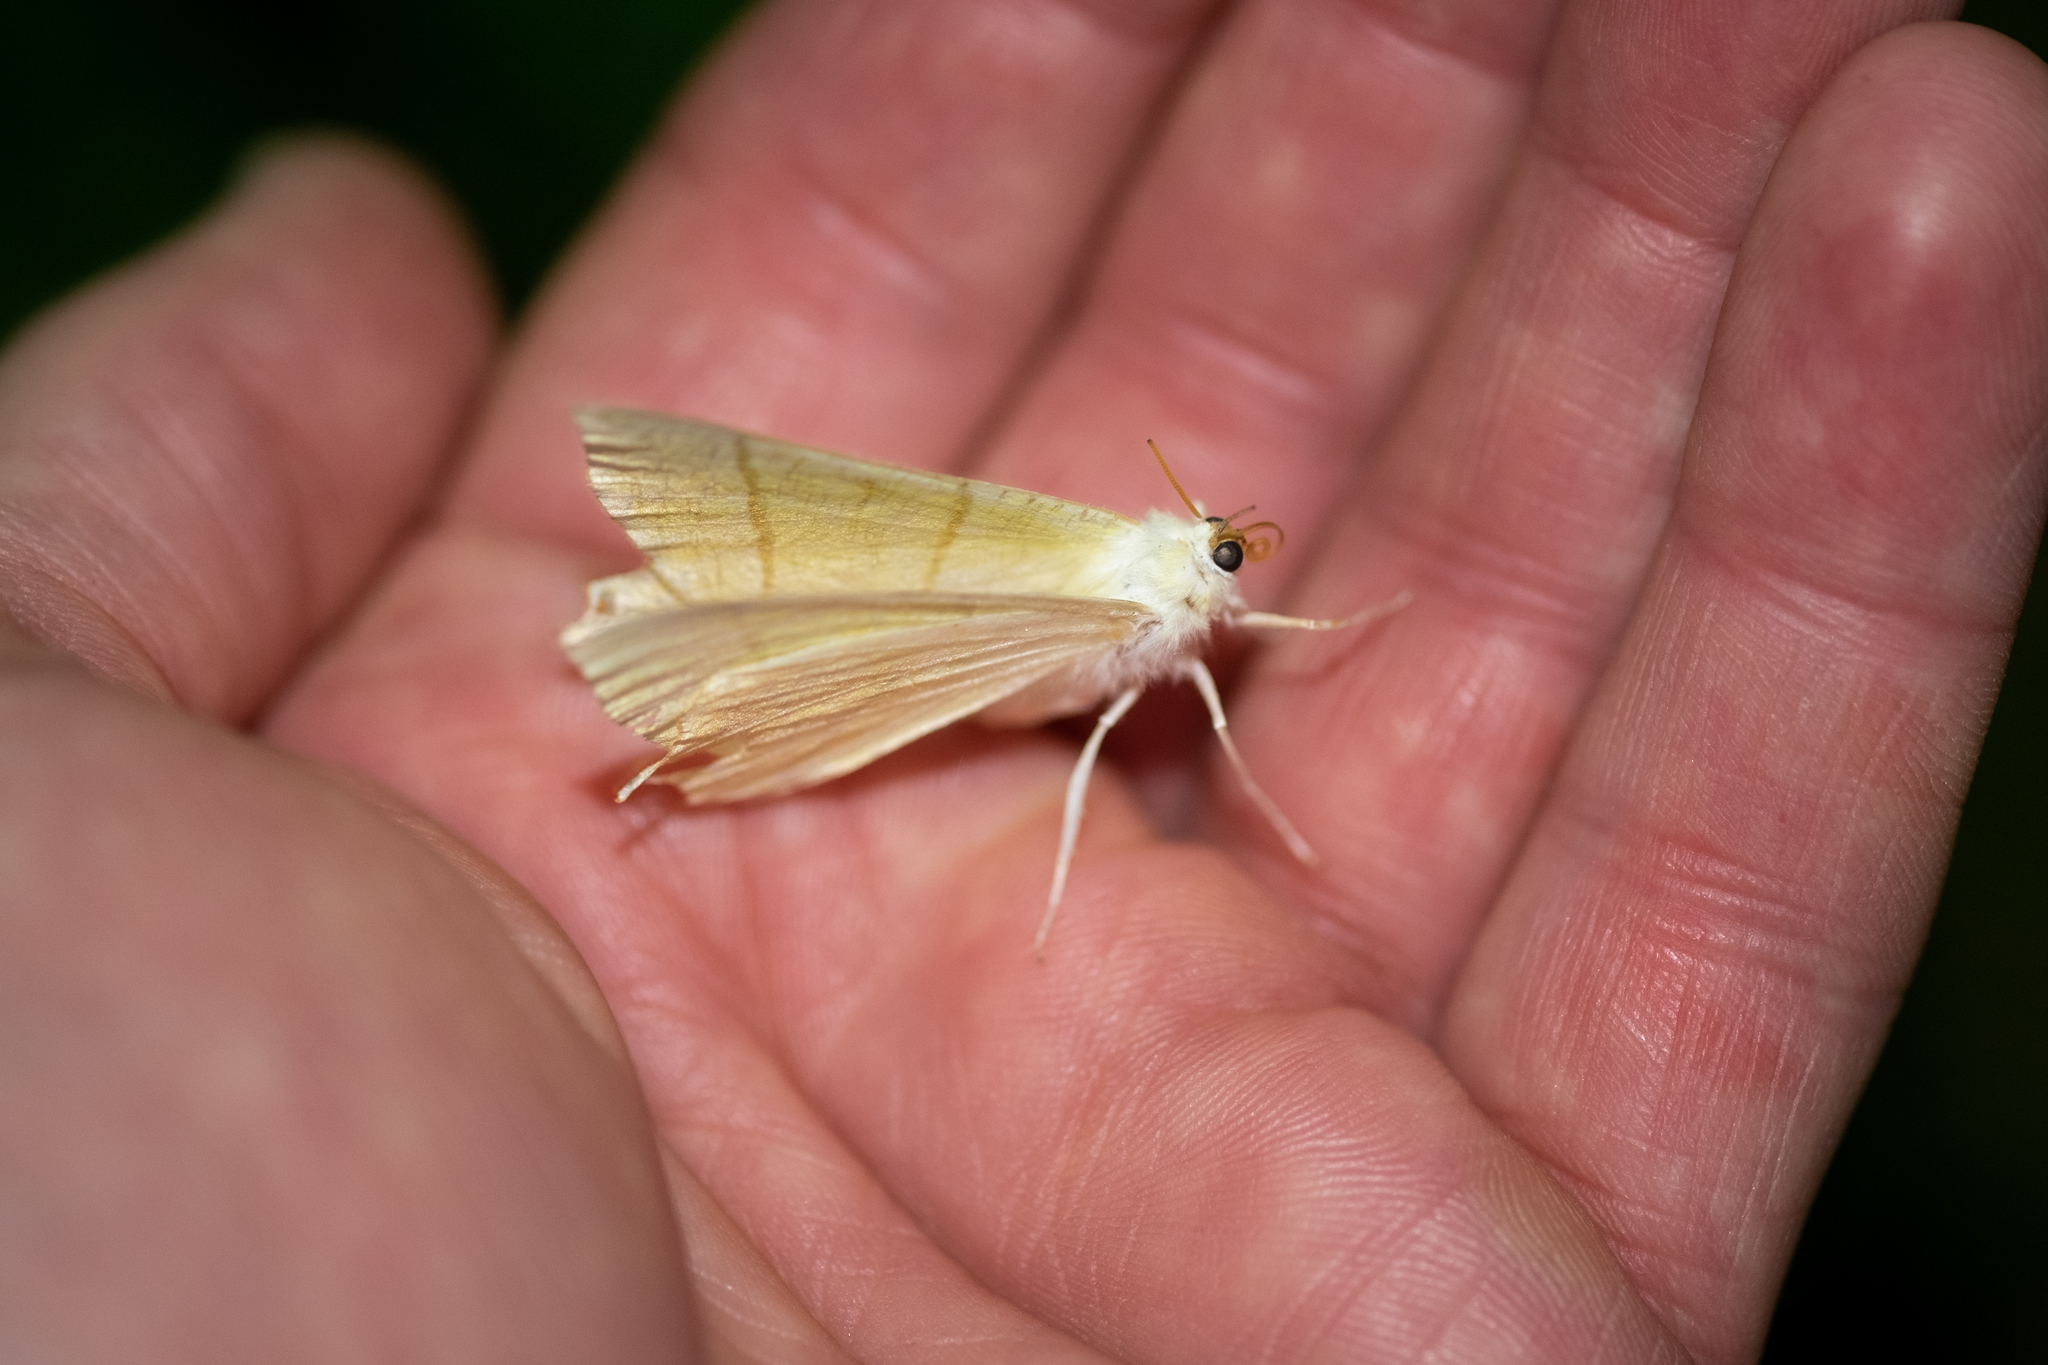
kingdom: Animalia
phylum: Arthropoda
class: Insecta
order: Lepidoptera
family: Geometridae
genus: Ourapteryx
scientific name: Ourapteryx sambucaria
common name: Swallow-tailed moth
